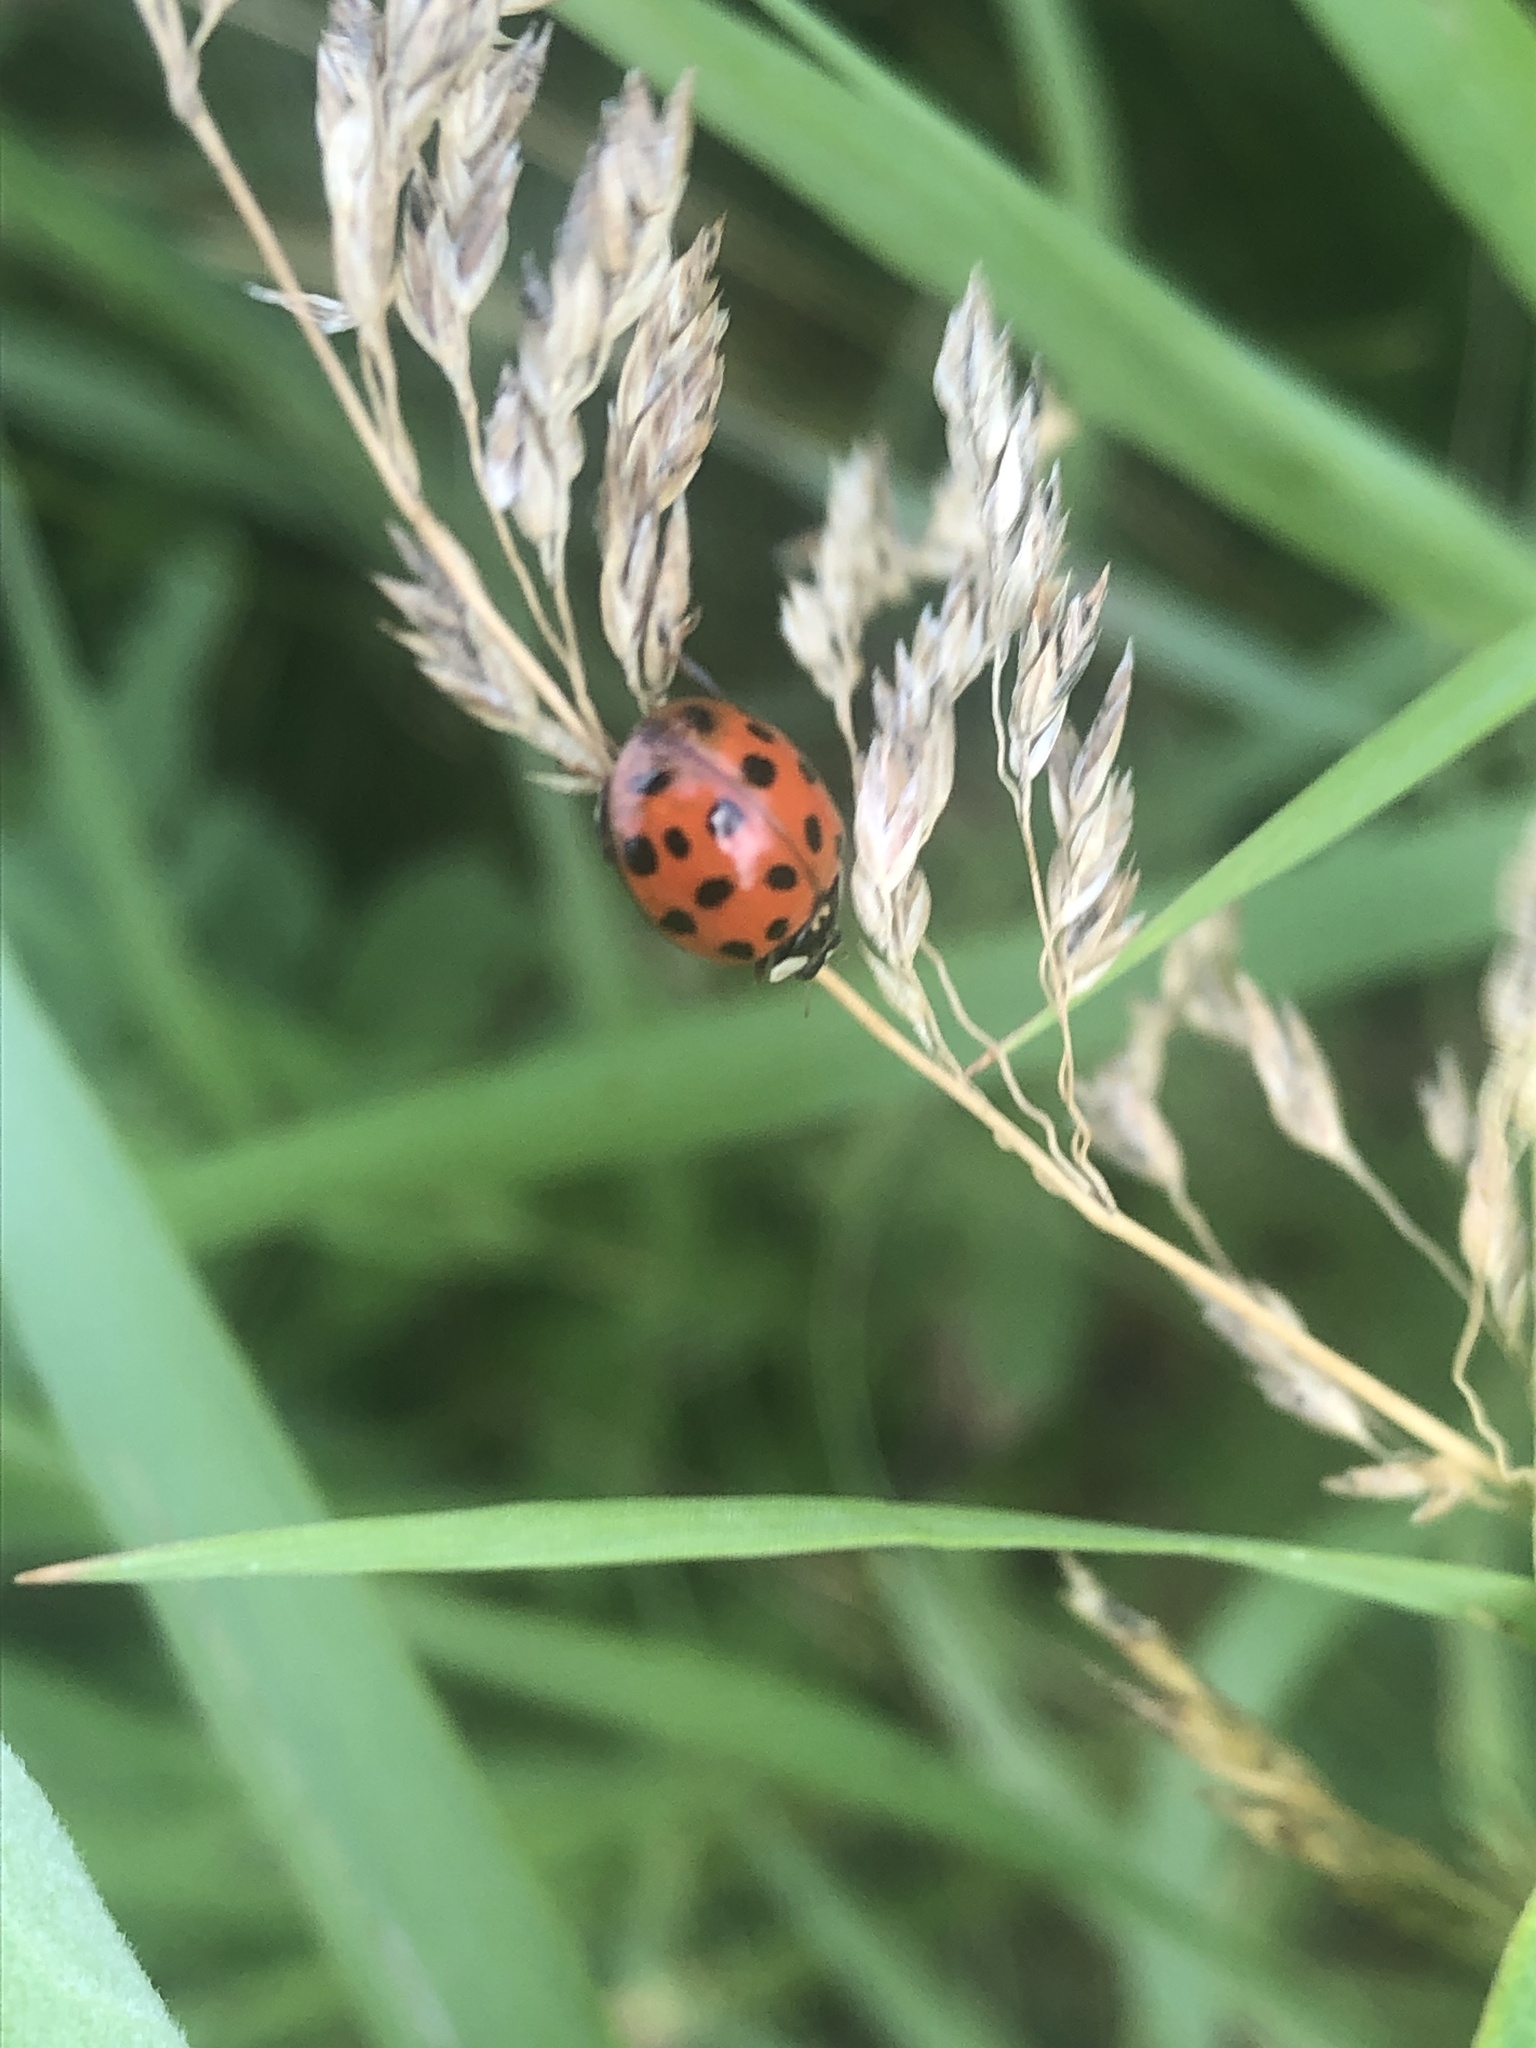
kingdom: Animalia
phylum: Arthropoda
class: Insecta
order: Coleoptera
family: Coccinellidae
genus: Harmonia
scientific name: Harmonia axyridis
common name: Harlequin ladybird
